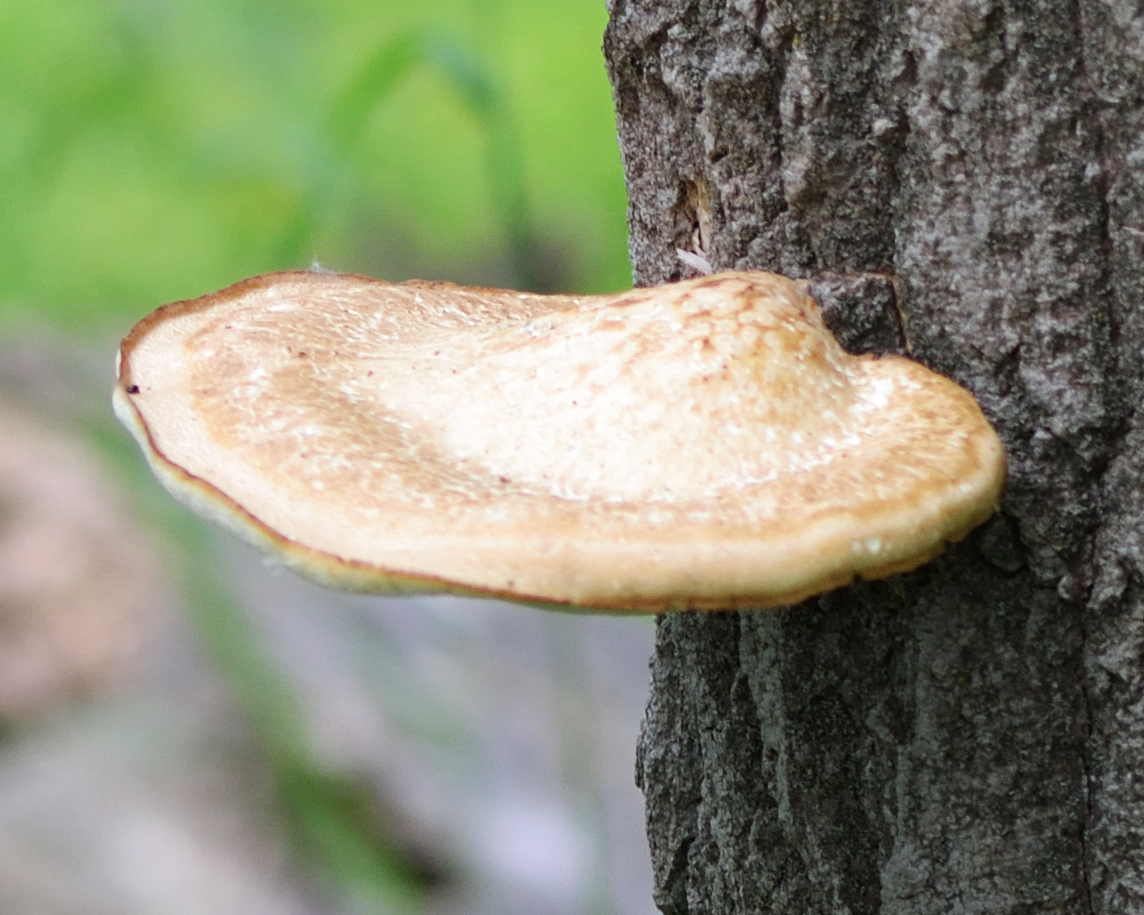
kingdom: Fungi
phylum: Basidiomycota
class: Agaricomycetes
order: Polyporales
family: Polyporaceae
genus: Favolus
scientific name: Favolus pseudobetulinus
